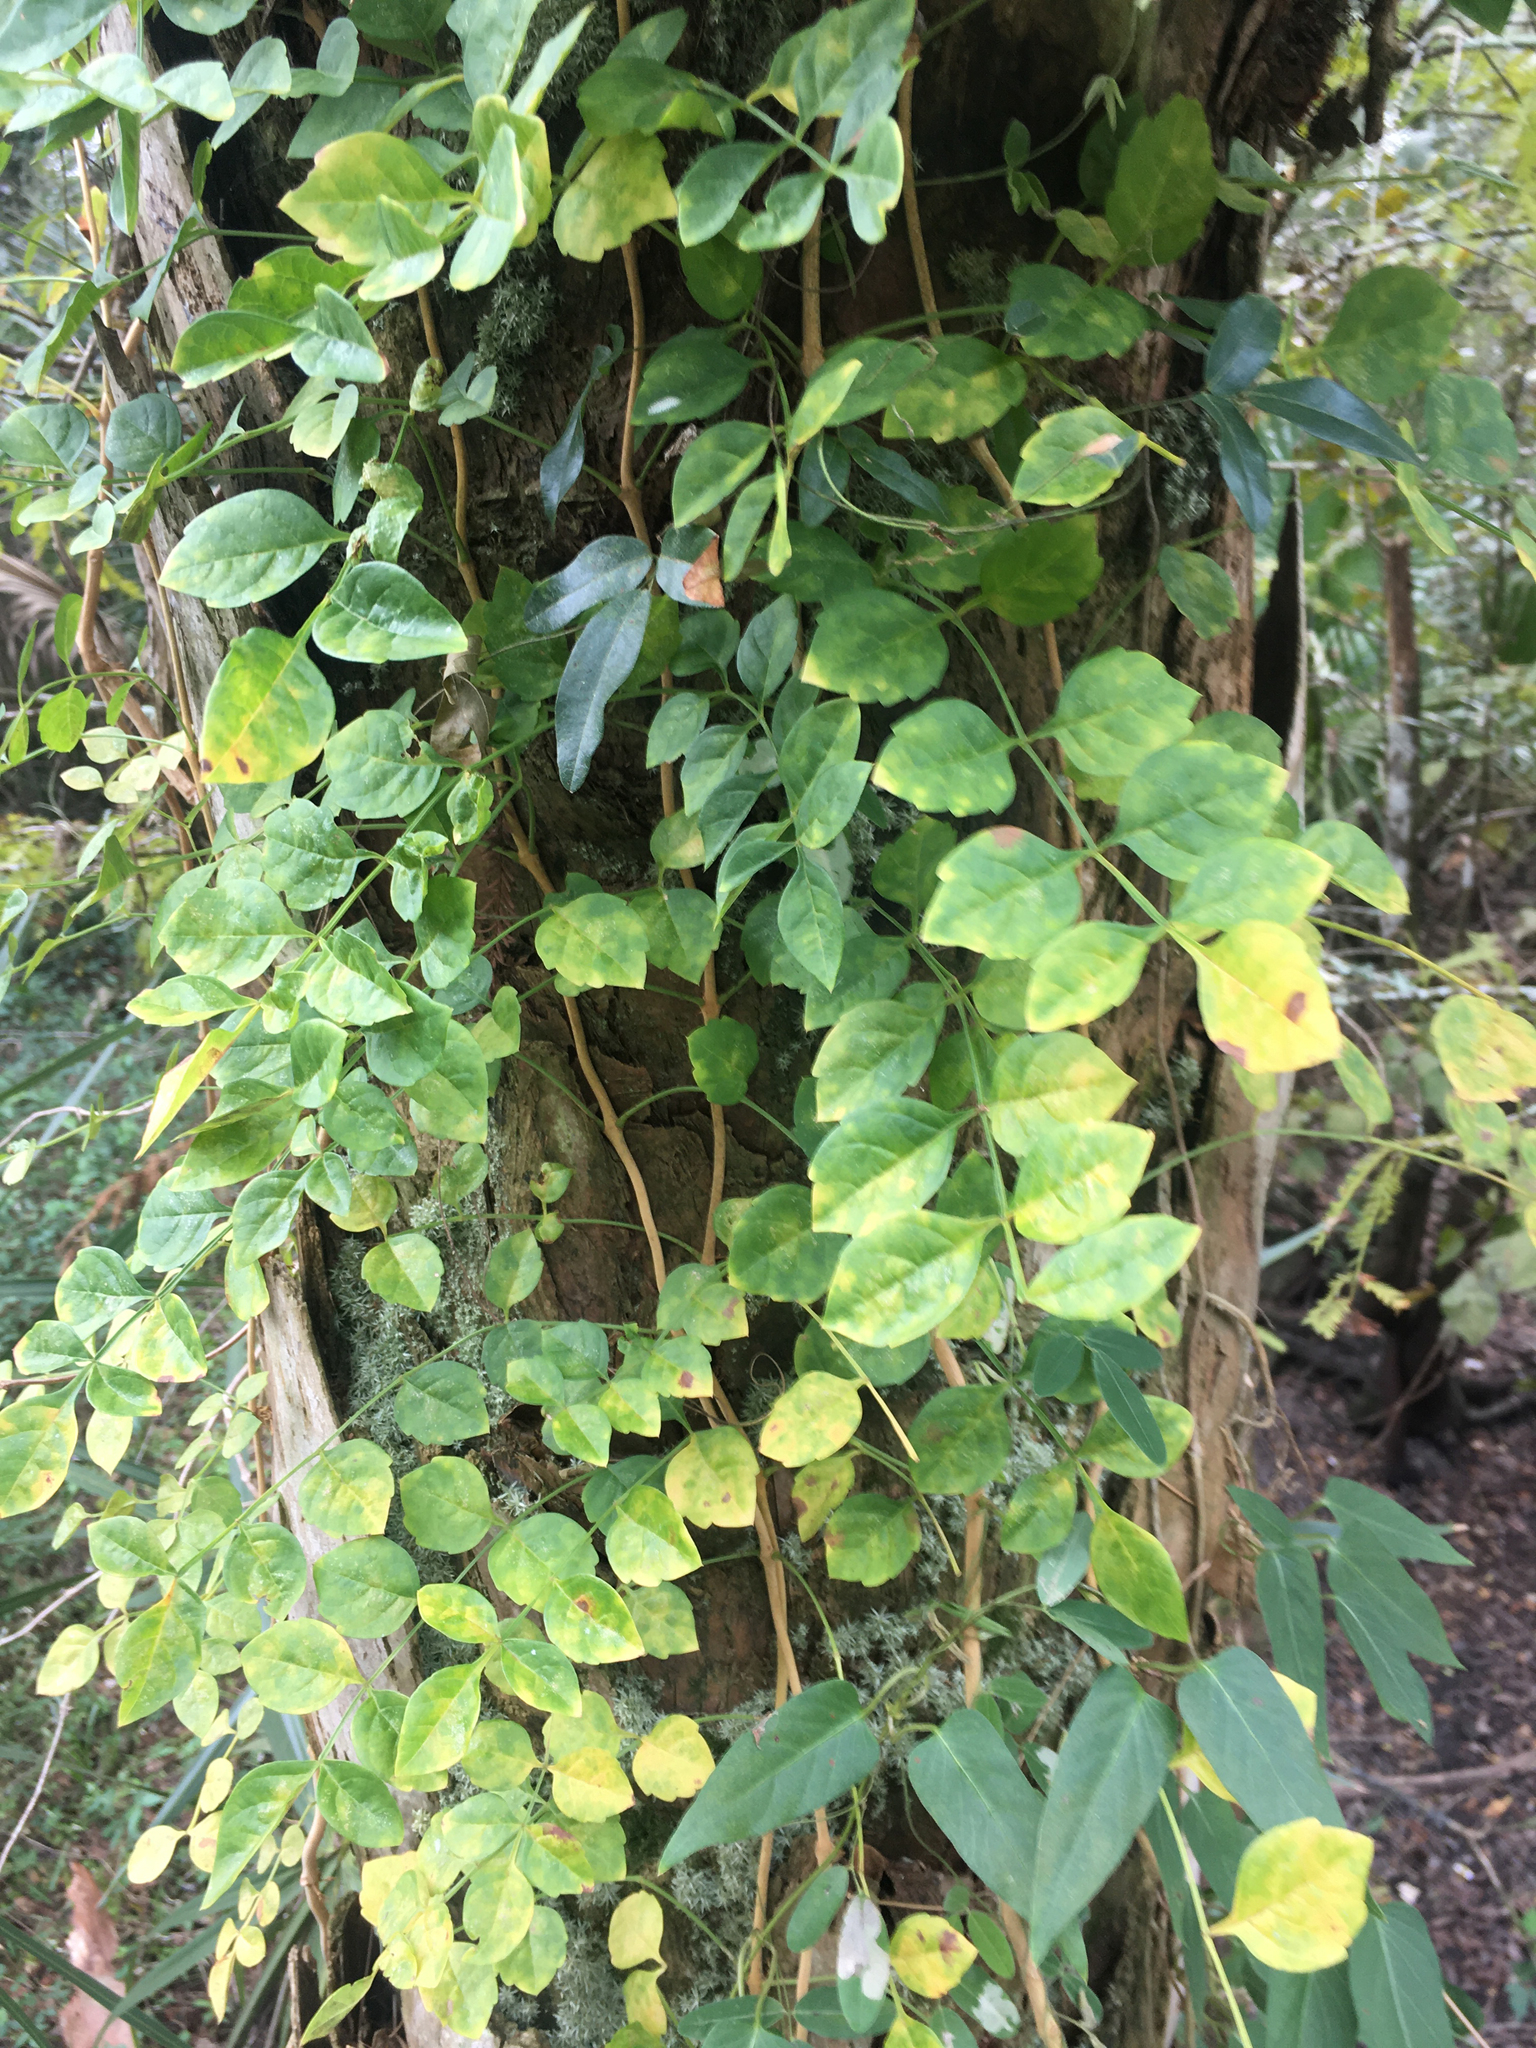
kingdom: Plantae
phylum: Tracheophyta
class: Magnoliopsida
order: Lamiales
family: Bignoniaceae
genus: Campsis
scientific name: Campsis radicans
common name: Trumpet-creeper
